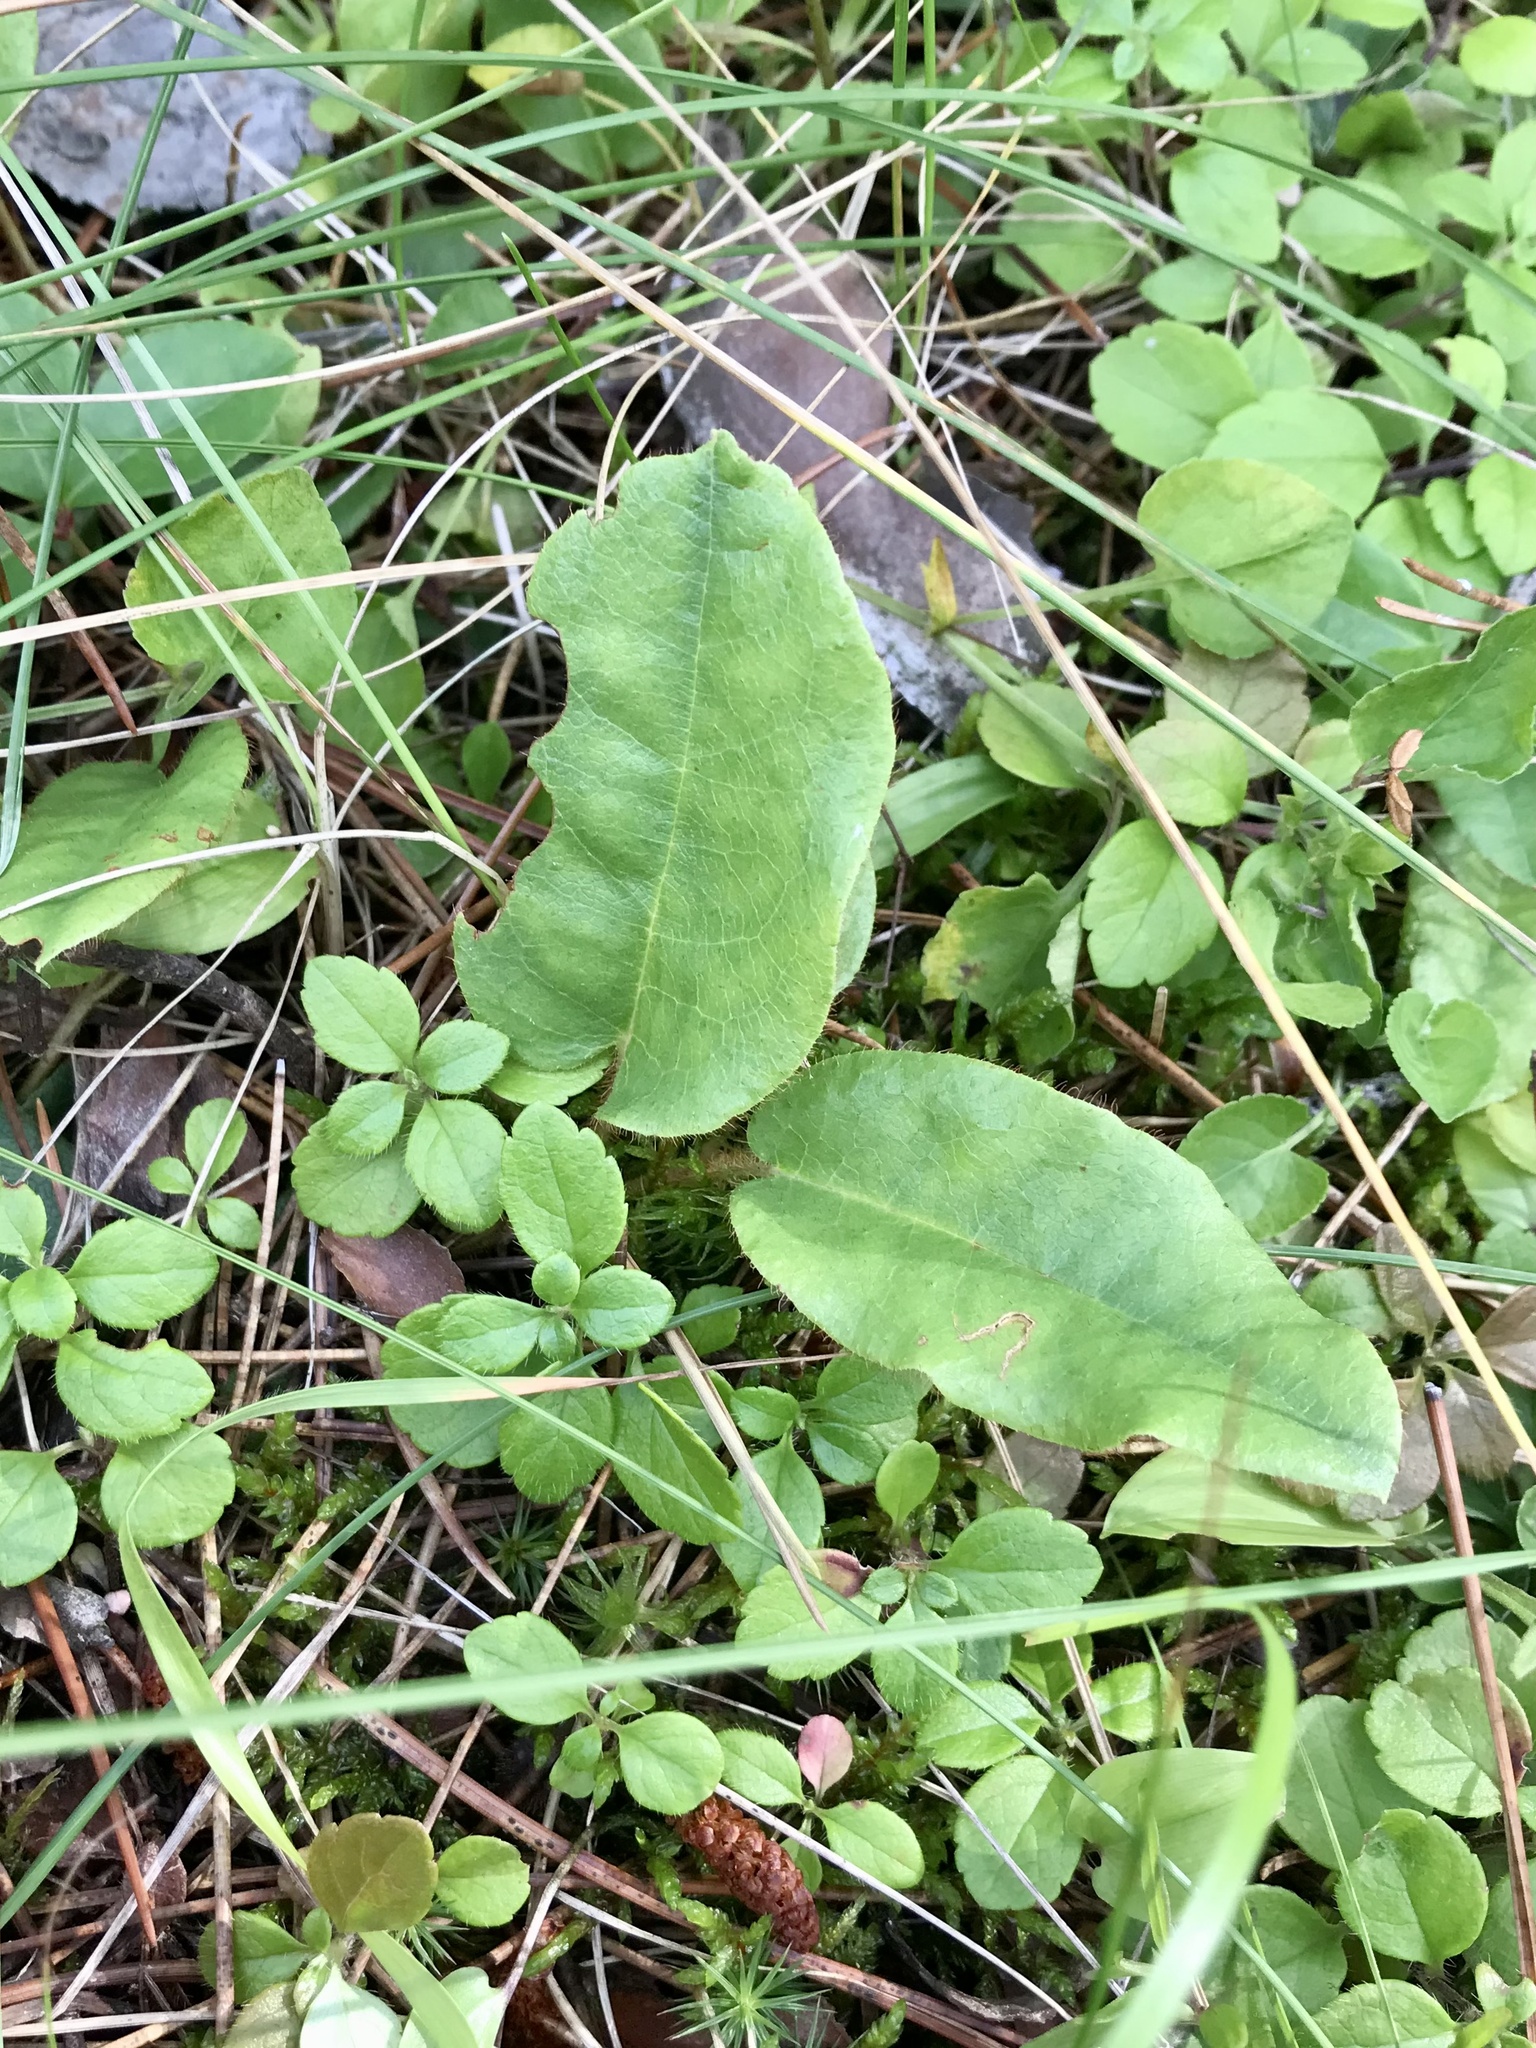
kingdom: Plantae
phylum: Tracheophyta
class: Magnoliopsida
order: Ericales
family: Ericaceae
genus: Epigaea
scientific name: Epigaea repens
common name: Gravelroot
